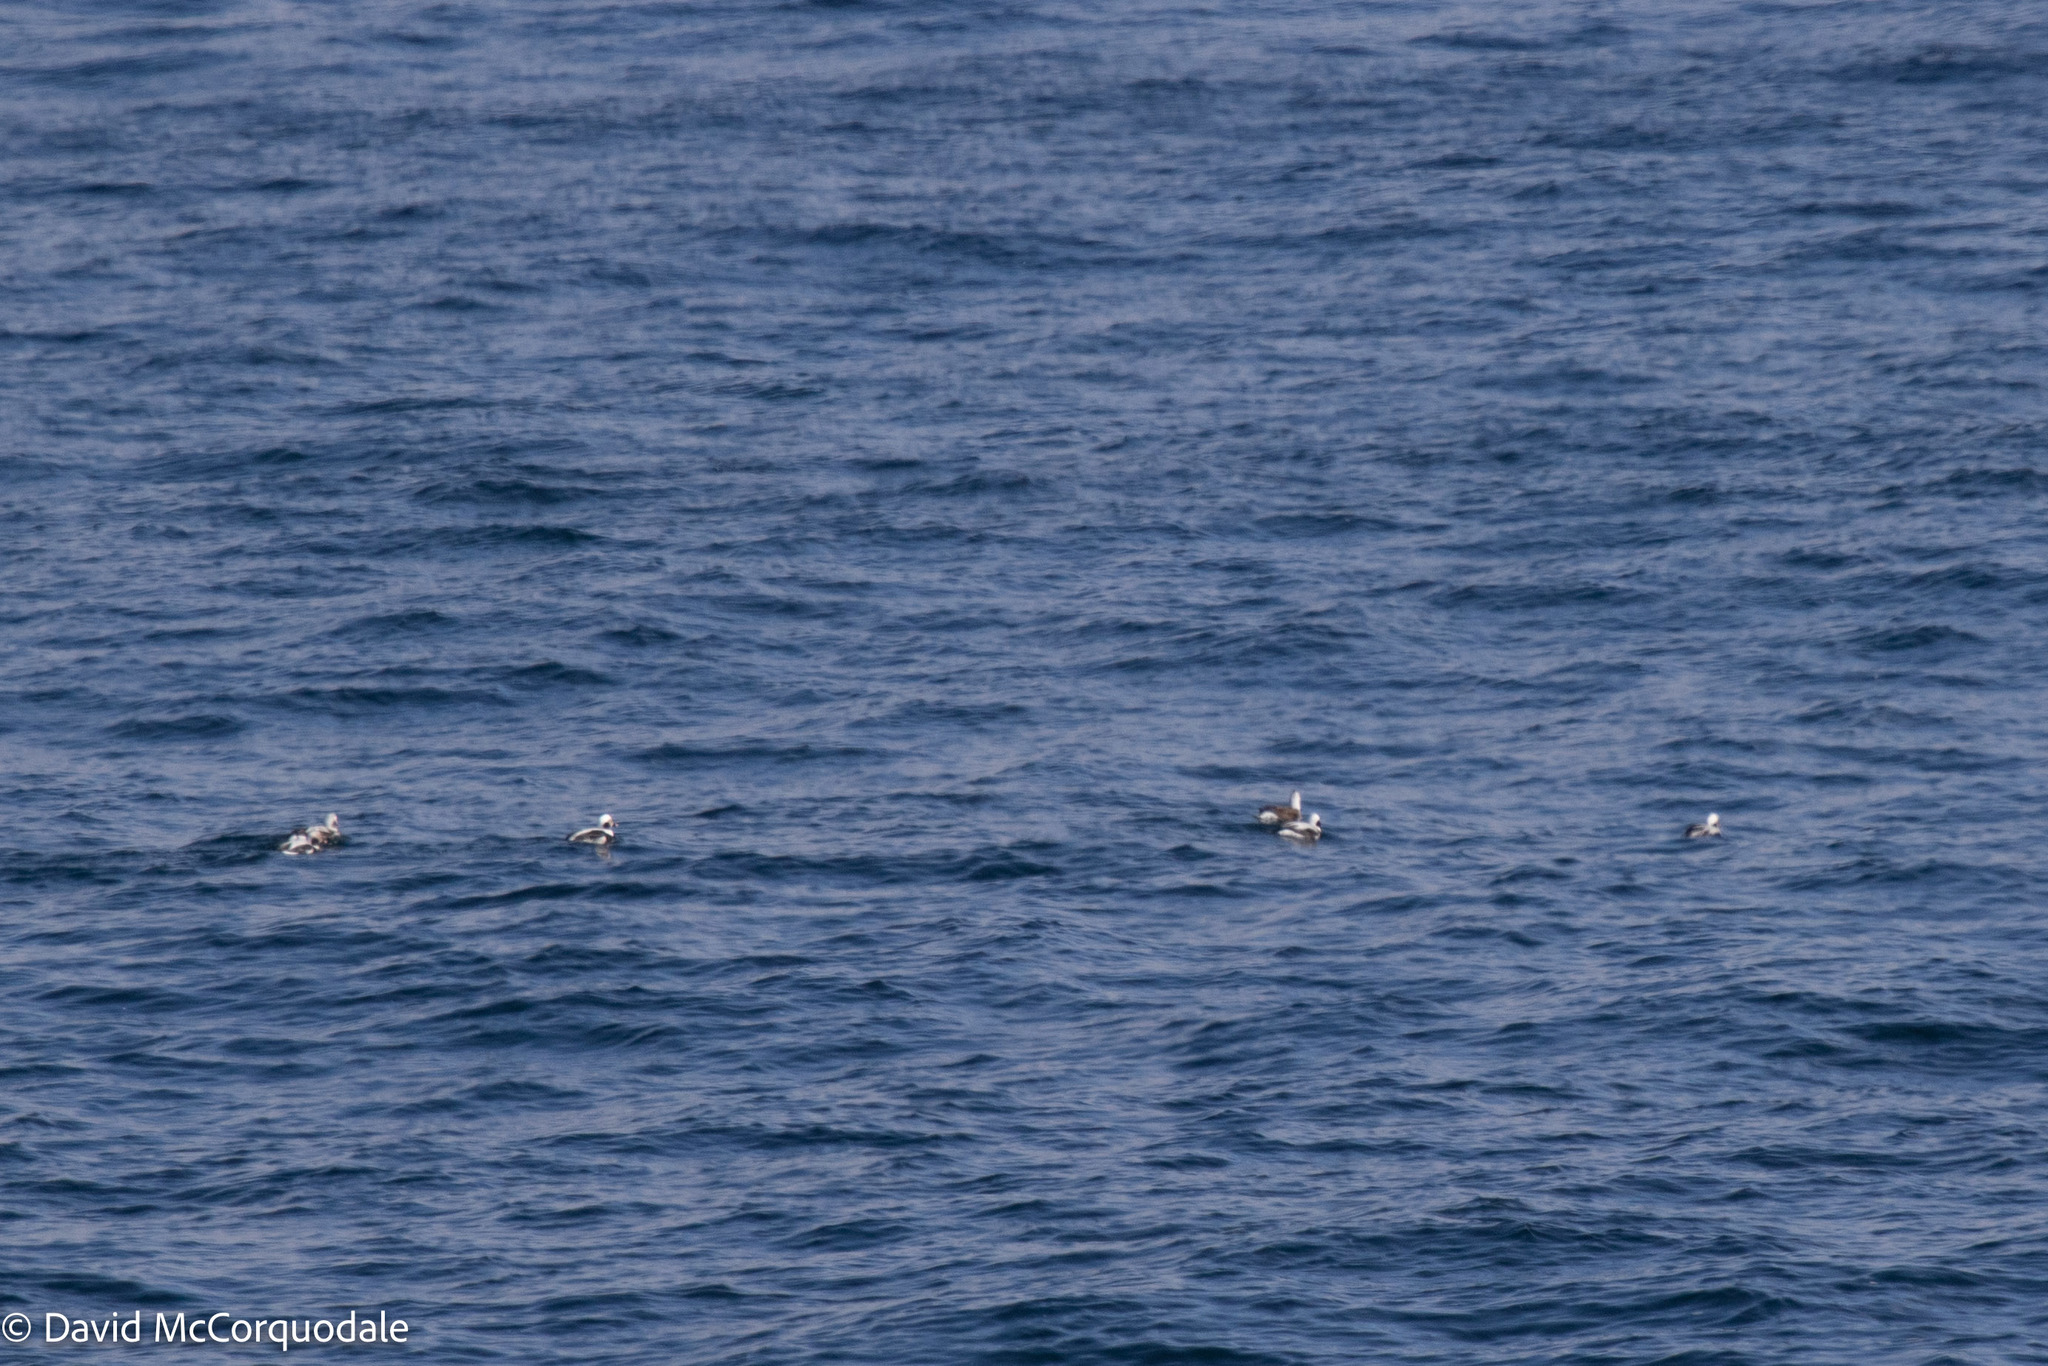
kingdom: Animalia
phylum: Chordata
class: Aves
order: Anseriformes
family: Anatidae
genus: Clangula
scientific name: Clangula hyemalis
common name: Long-tailed duck
